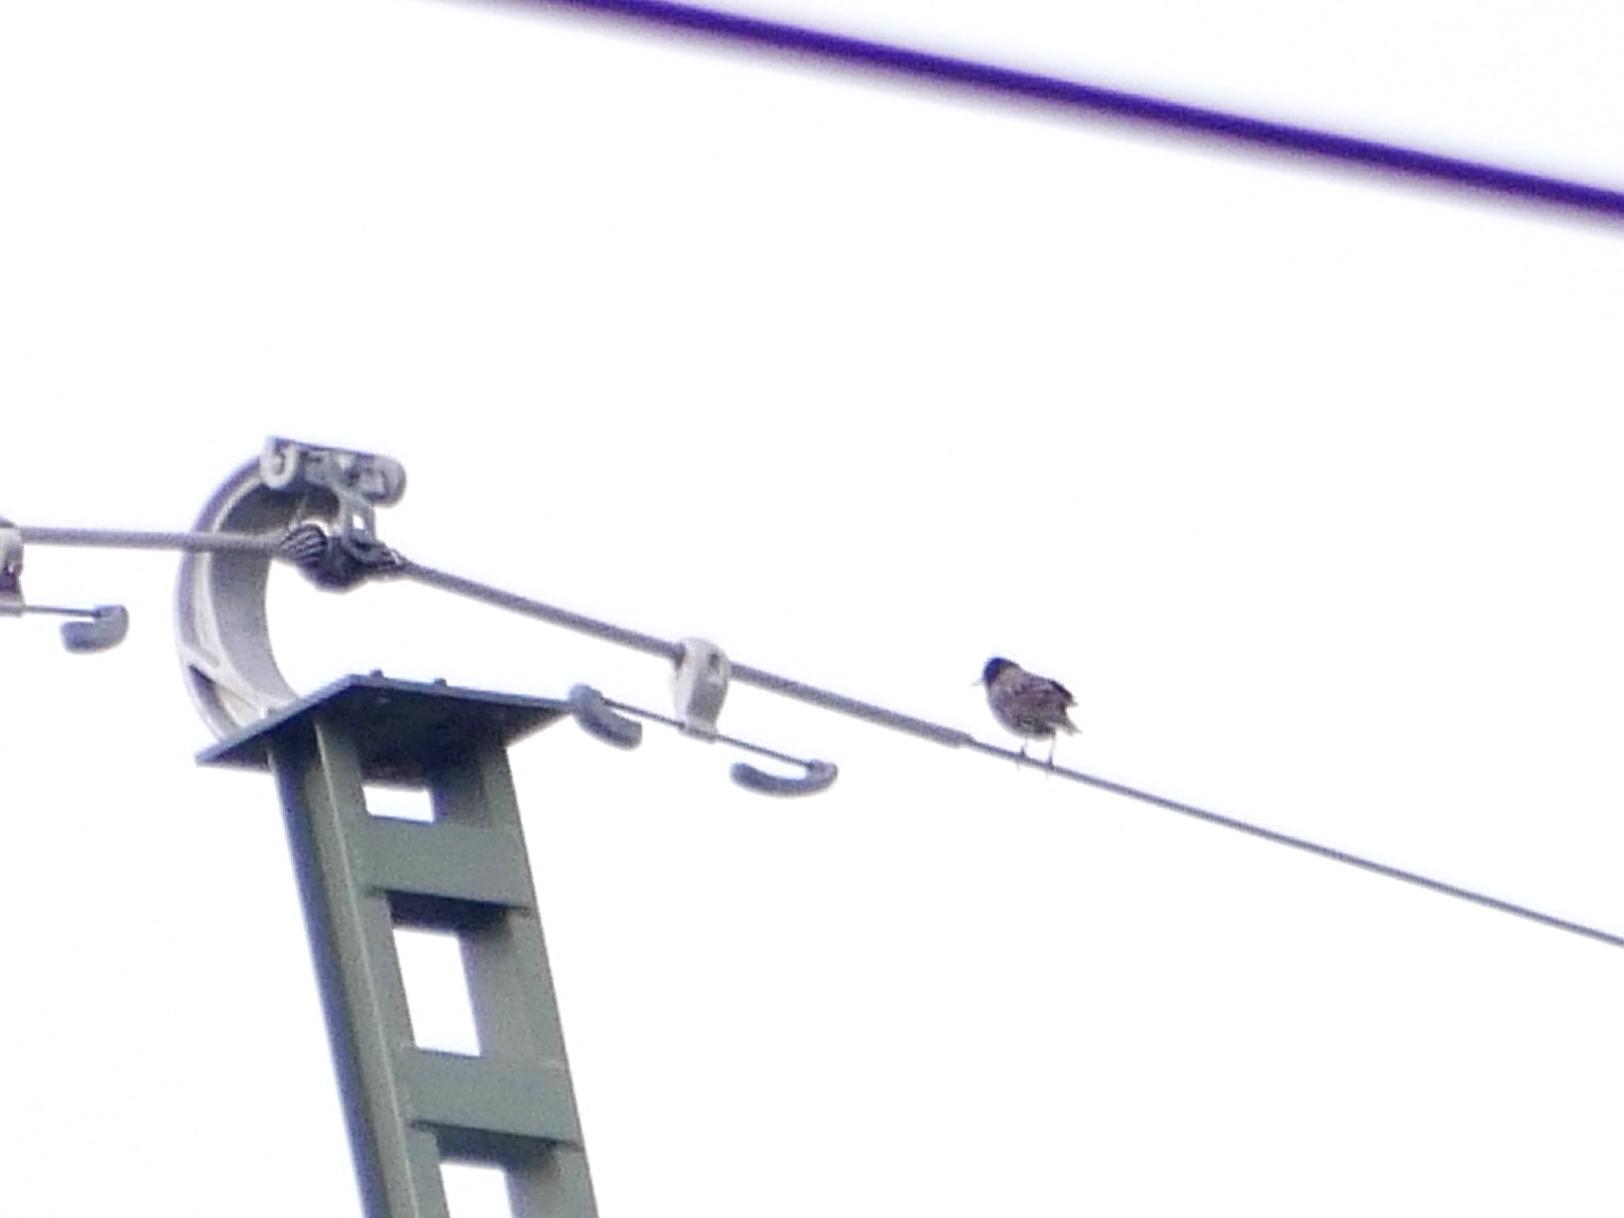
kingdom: Animalia
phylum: Chordata
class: Aves
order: Passeriformes
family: Sturnidae
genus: Sturnus
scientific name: Sturnus vulgaris
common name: Common starling
